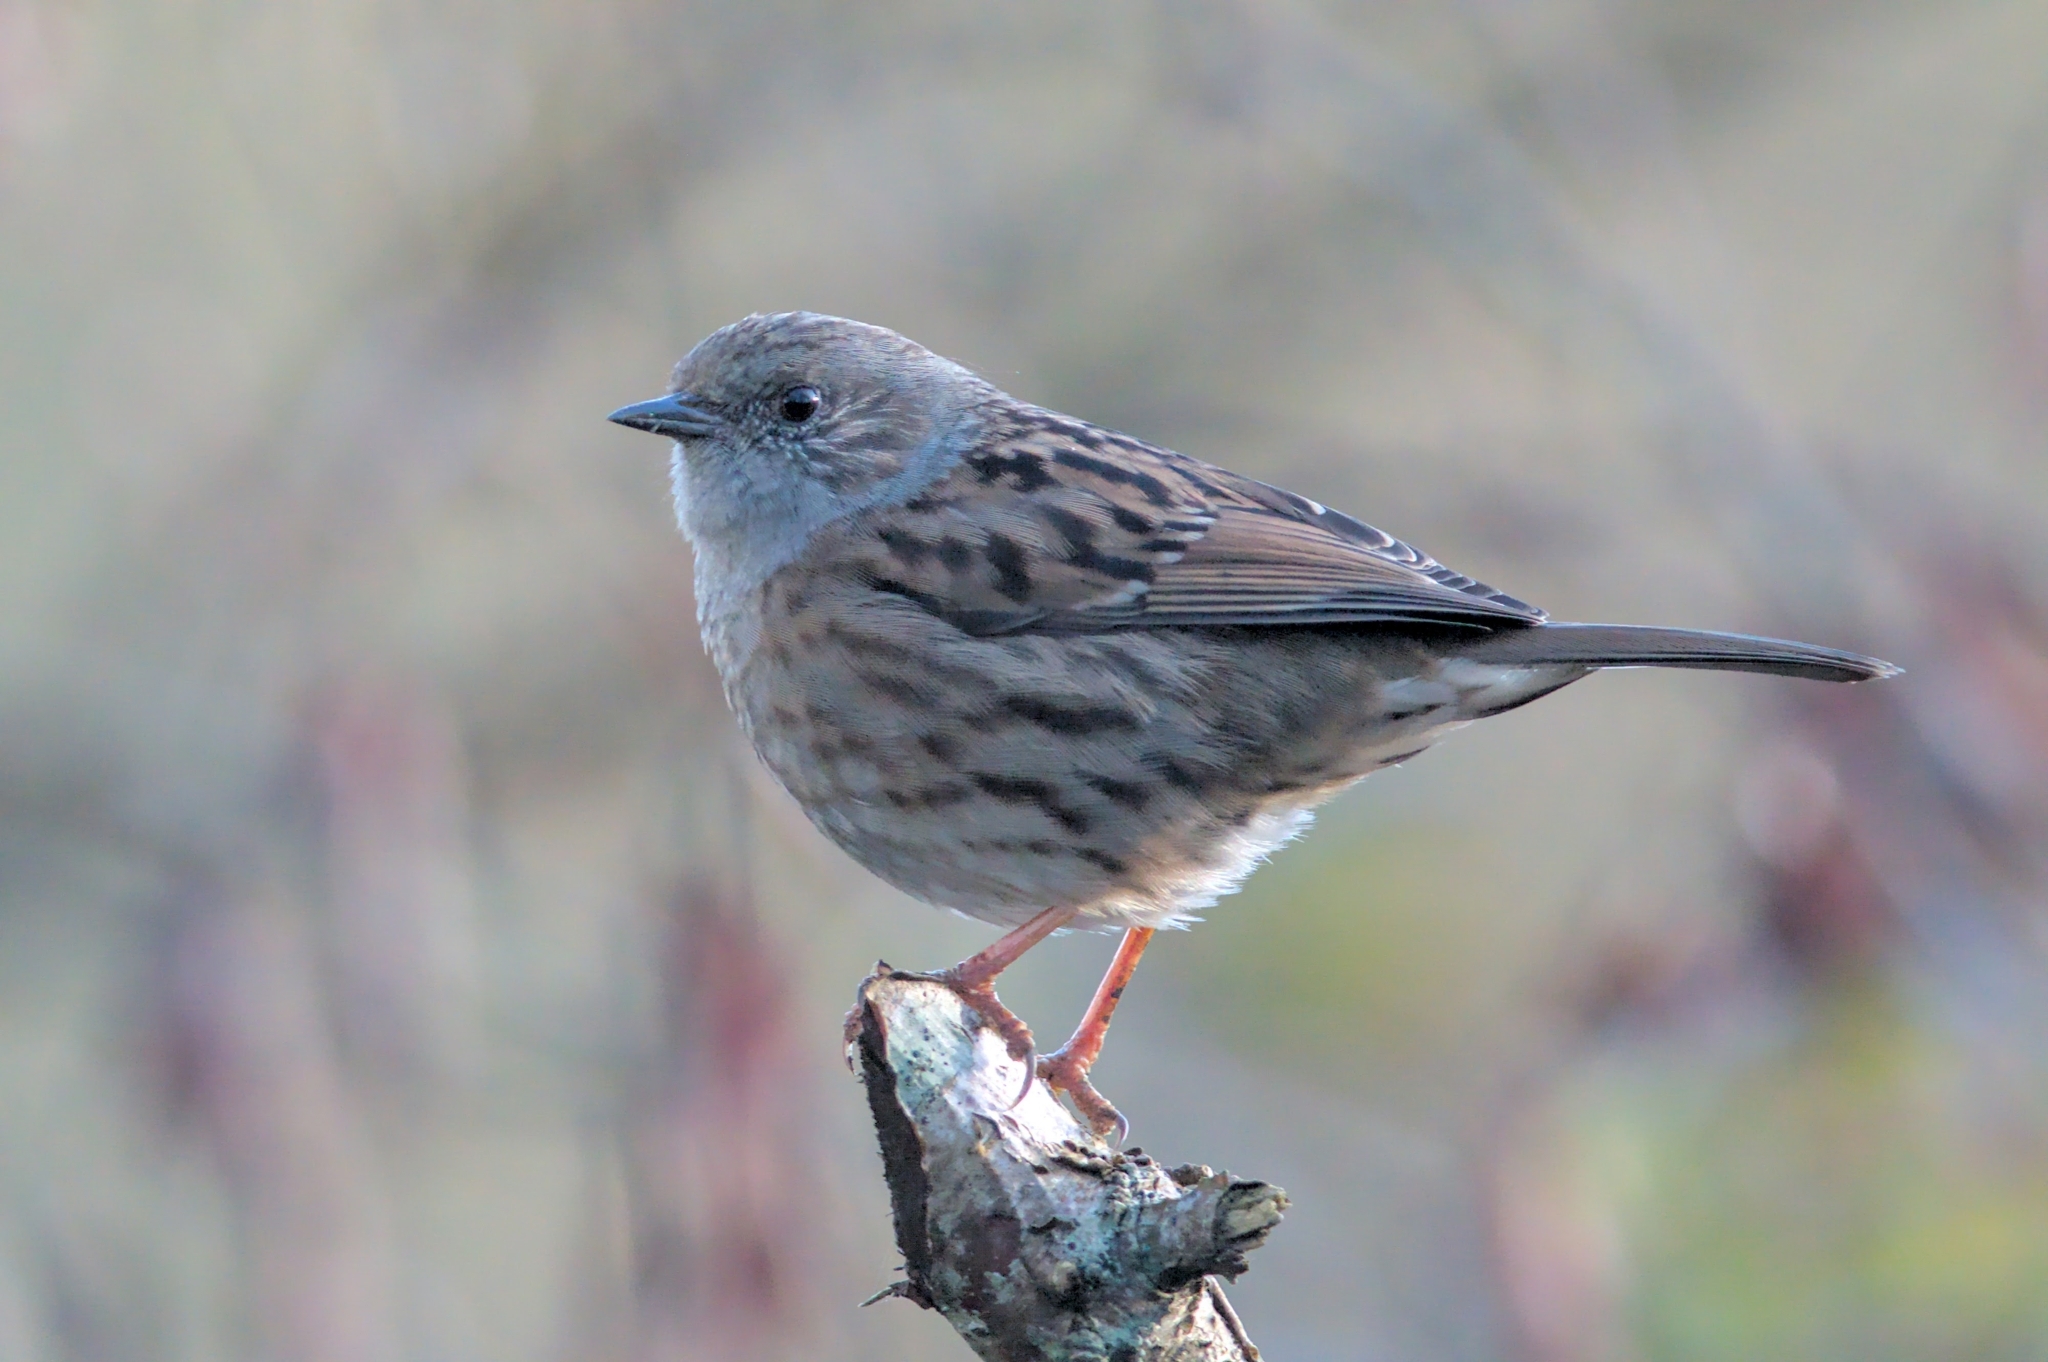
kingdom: Animalia
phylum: Chordata
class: Aves
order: Passeriformes
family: Prunellidae
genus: Prunella
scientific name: Prunella modularis
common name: Dunnock
